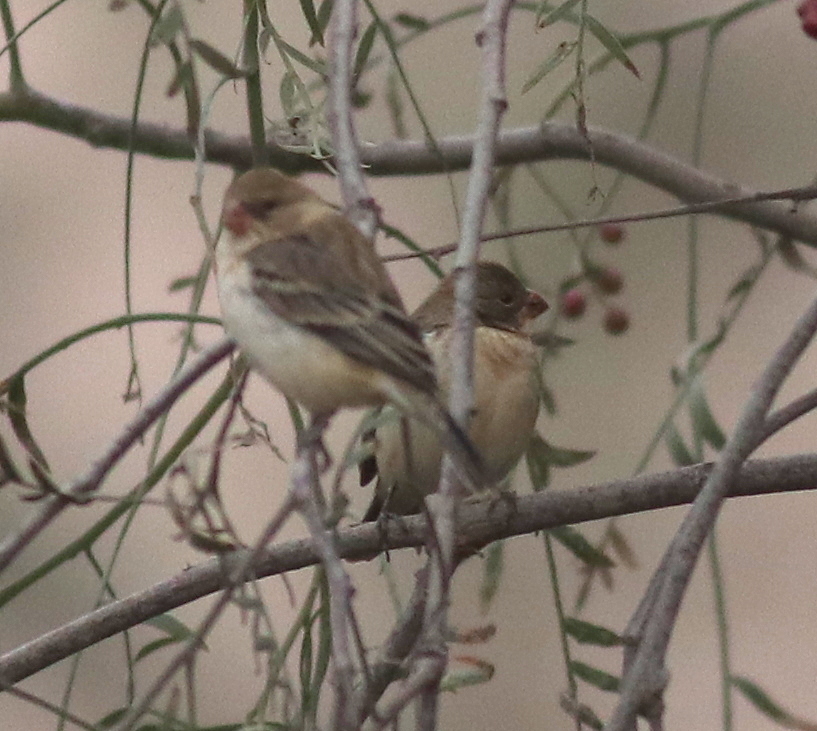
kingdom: Animalia
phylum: Chordata
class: Aves
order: Passeriformes
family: Thraupidae
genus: Sporophila
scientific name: Sporophila telasco
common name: Chestnut-throated seedeater
